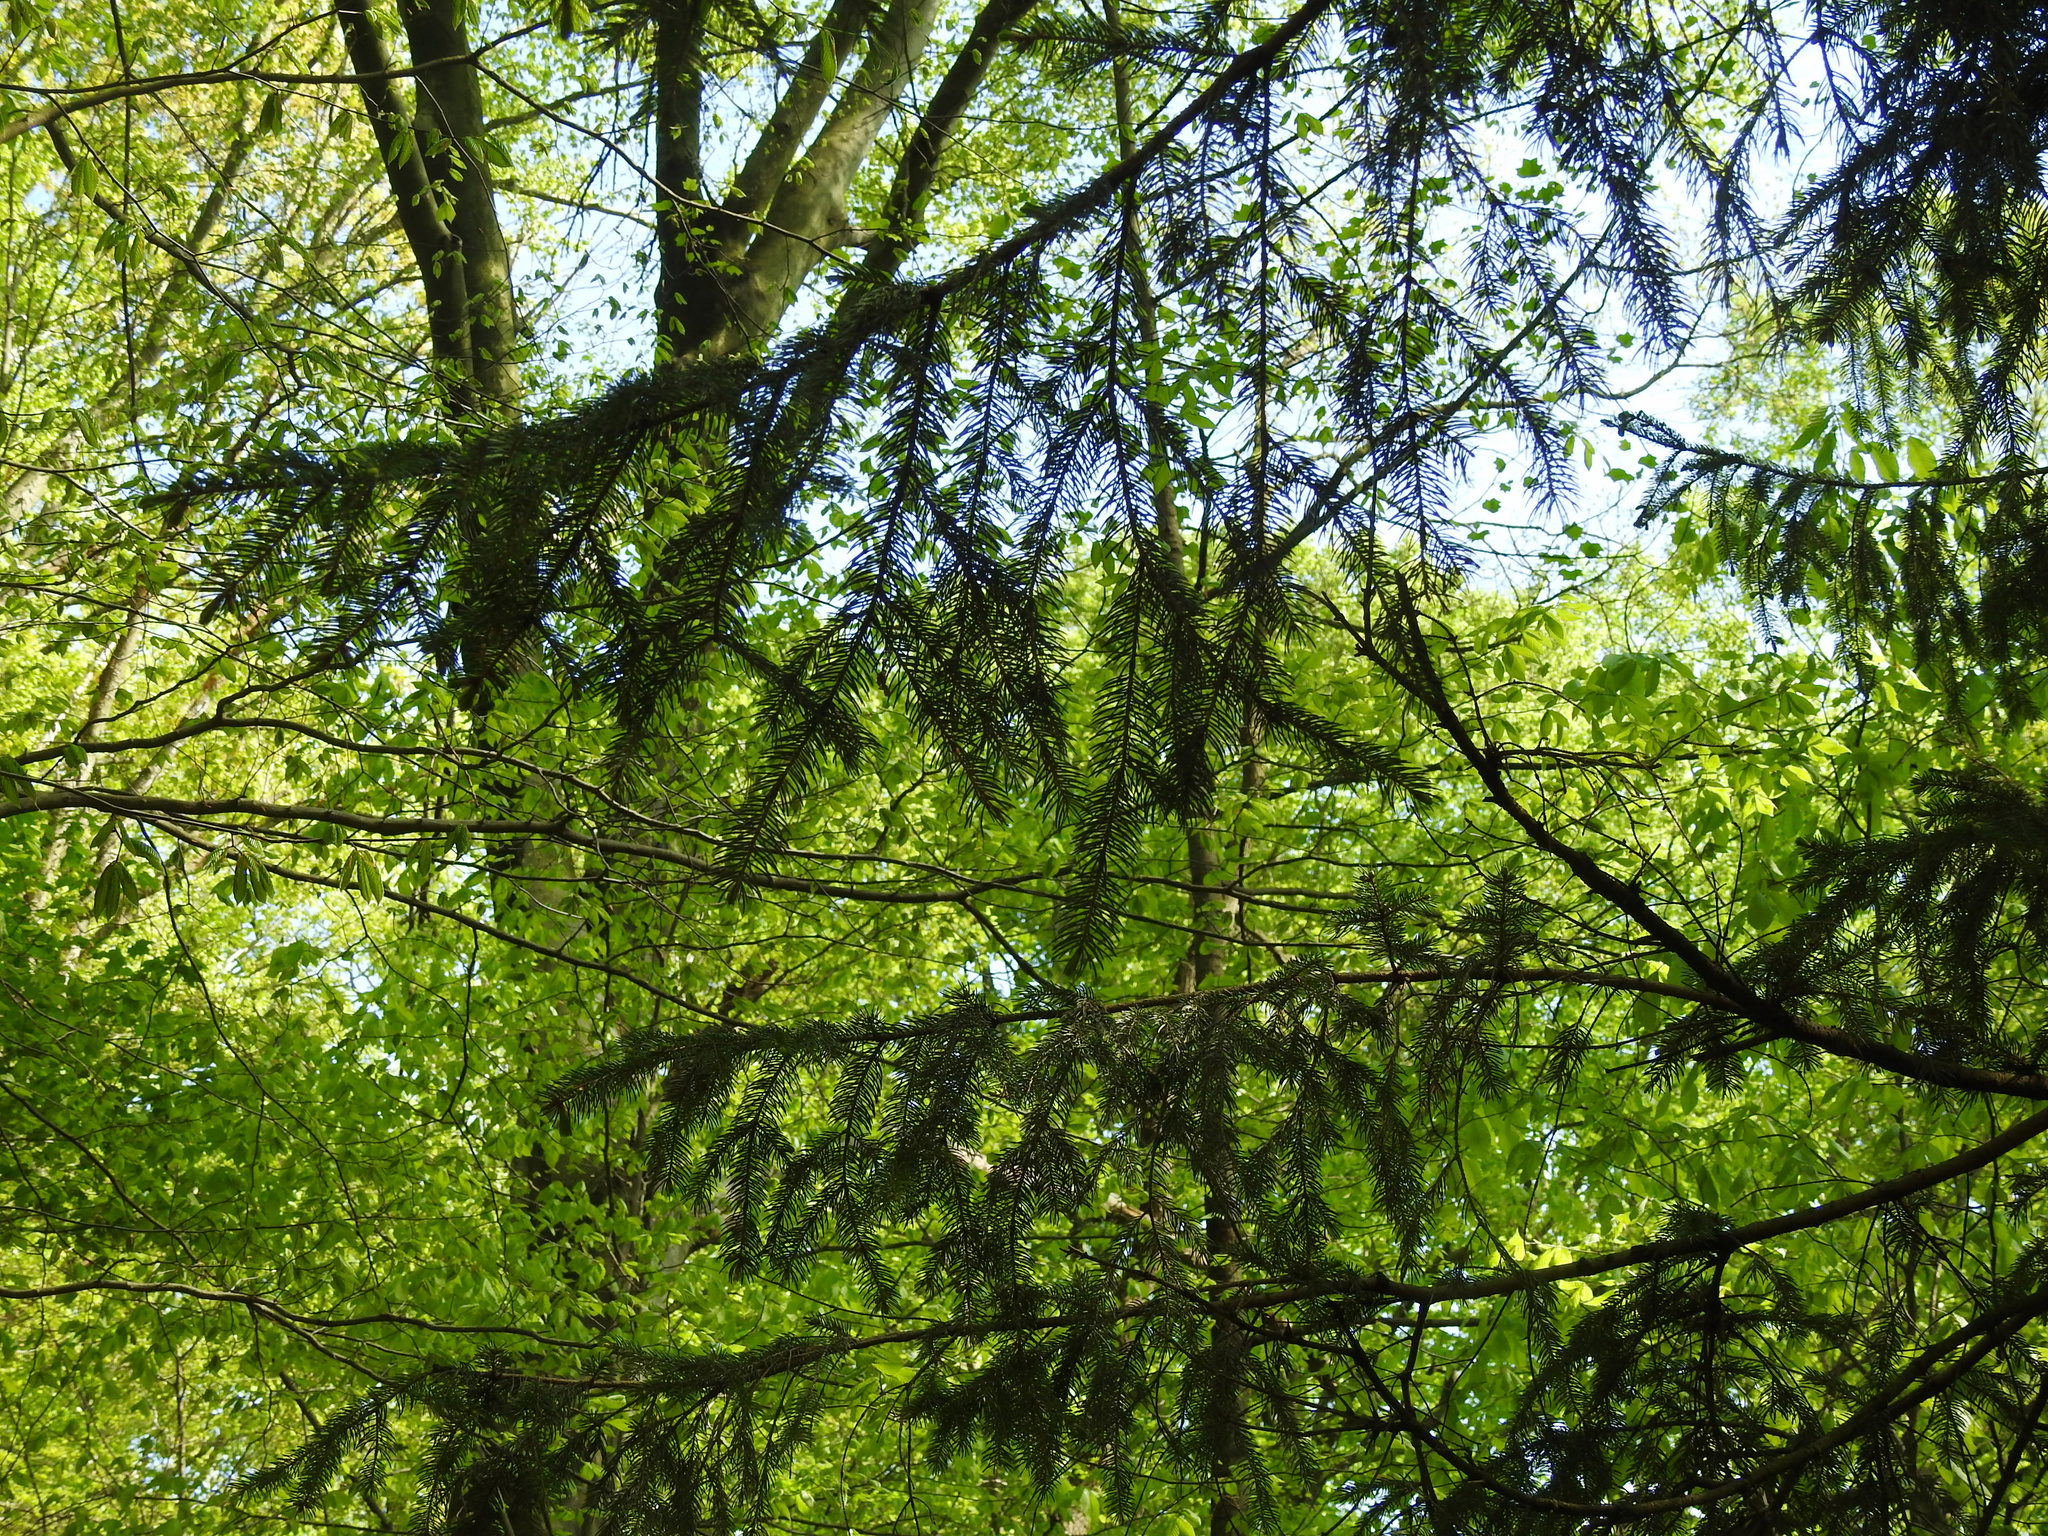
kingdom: Plantae
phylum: Tracheophyta
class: Pinopsida
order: Pinales
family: Pinaceae
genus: Picea
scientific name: Picea abies
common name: Norway spruce
